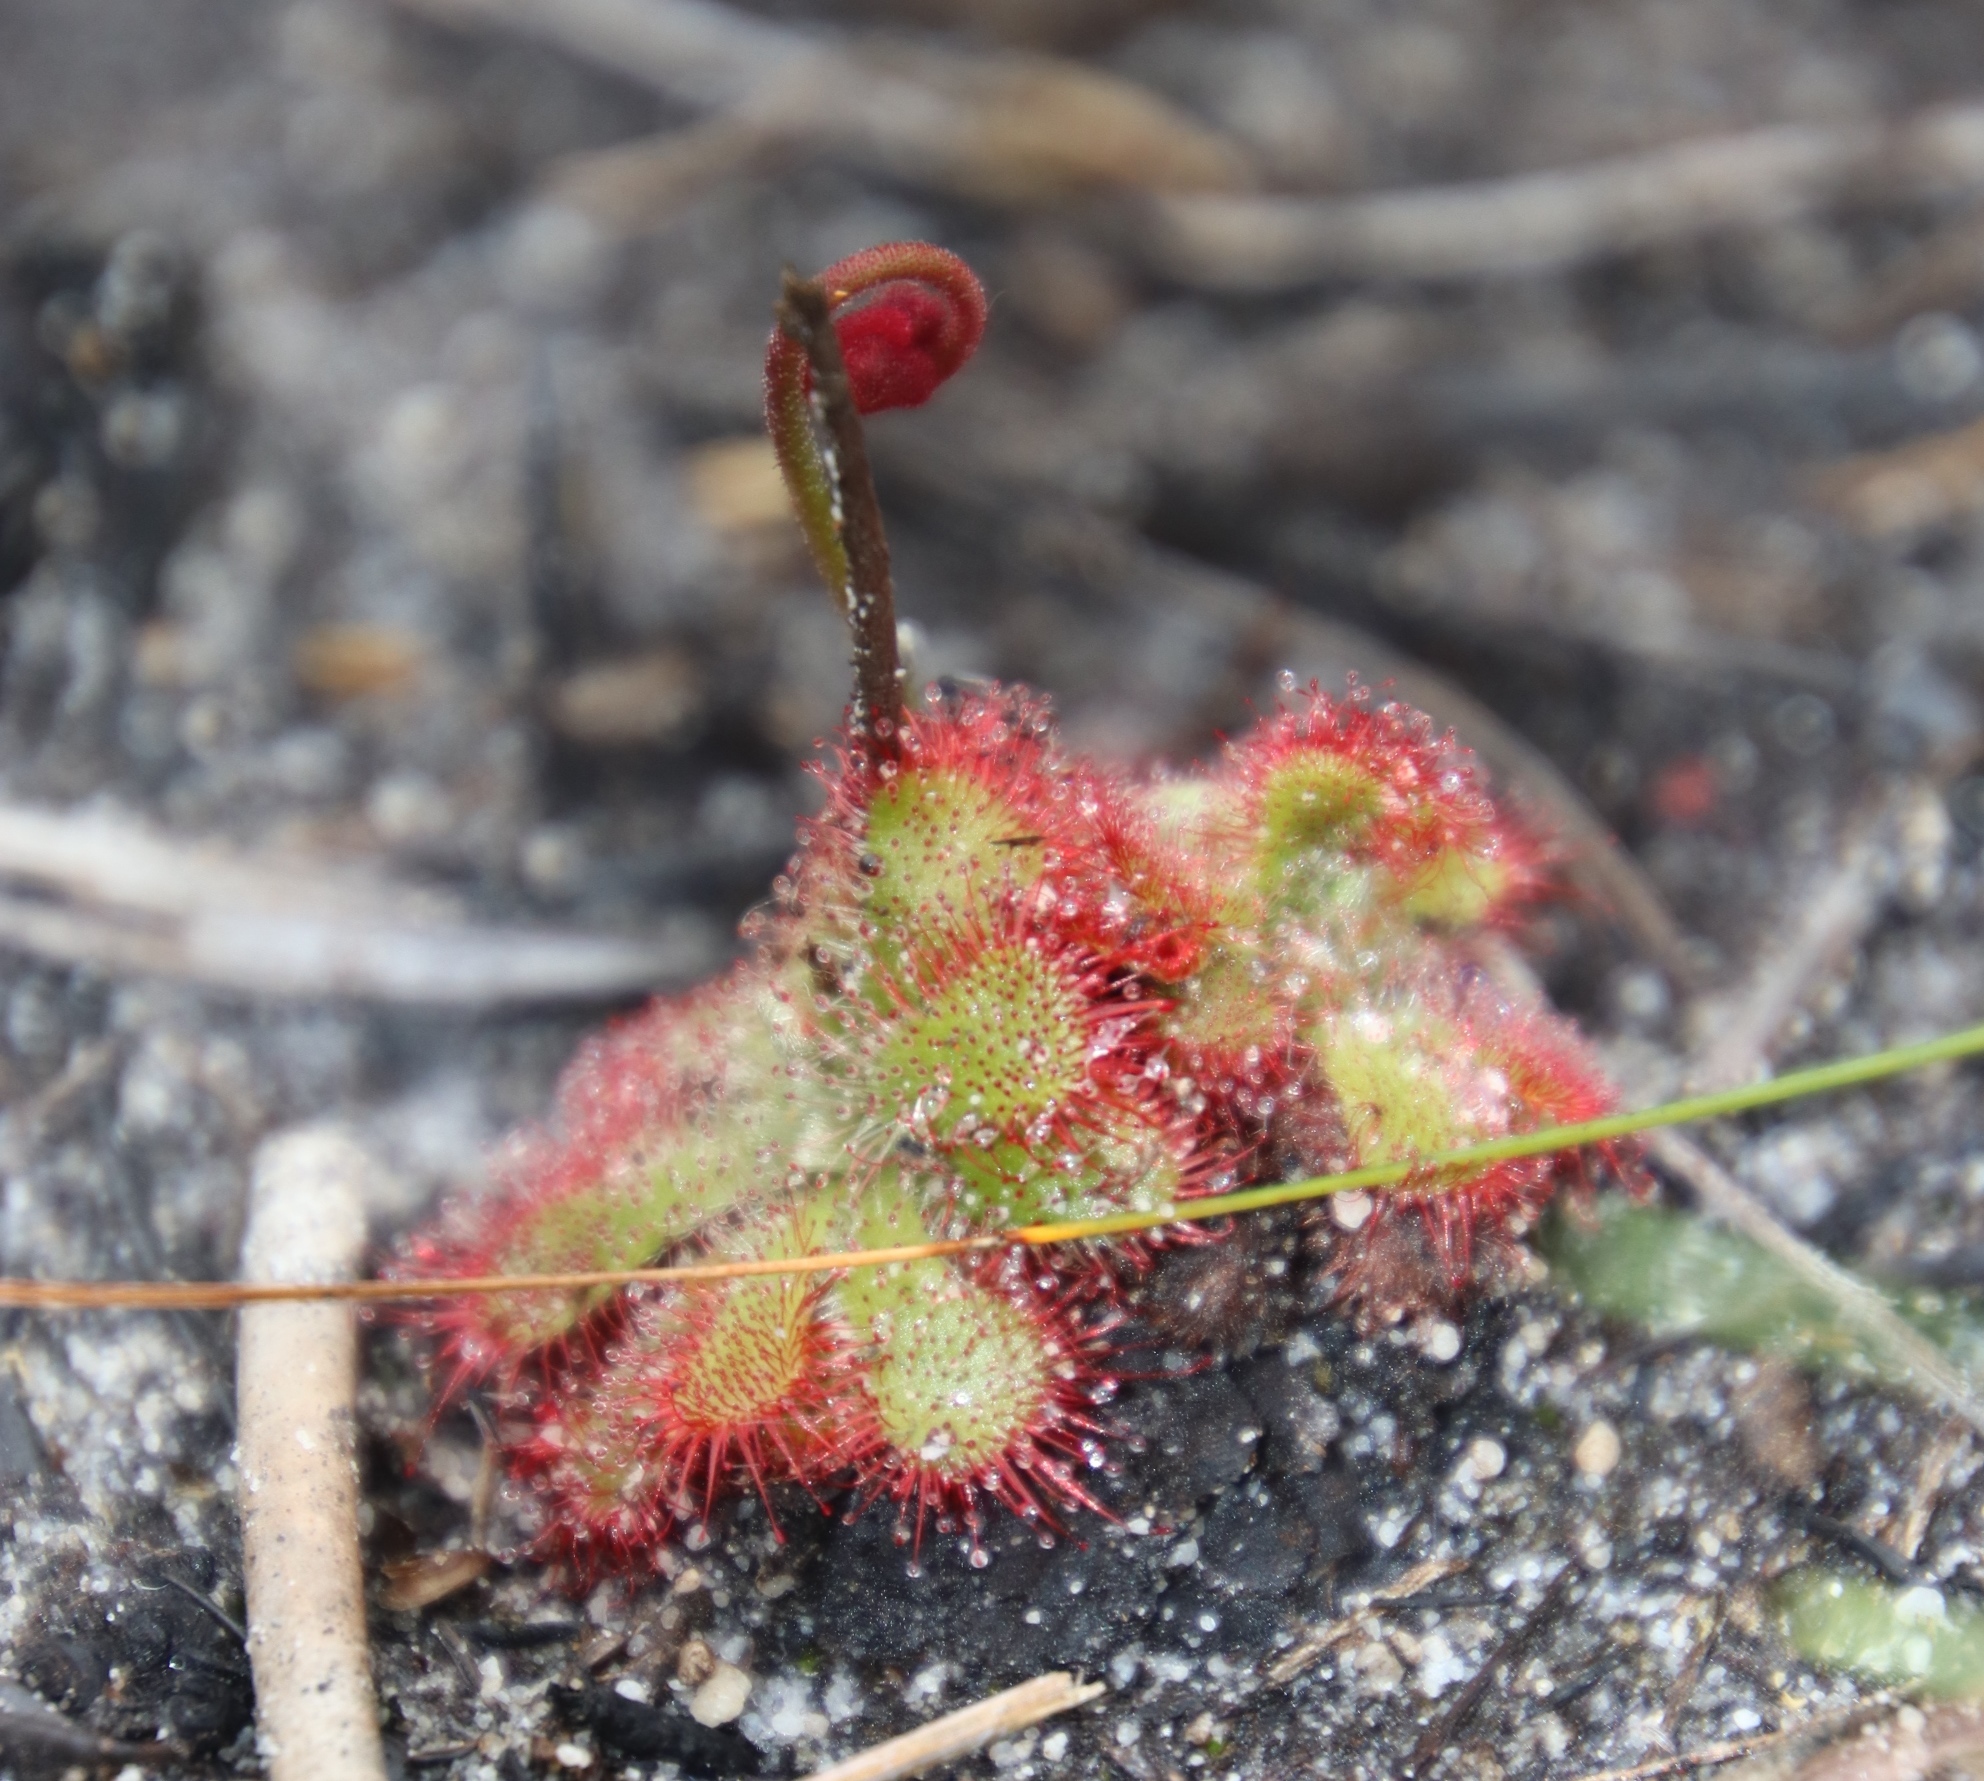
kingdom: Plantae
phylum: Tracheophyta
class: Magnoliopsida
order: Caryophyllales
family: Droseraceae
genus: Drosera
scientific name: Drosera aliciae
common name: Alice sundew
